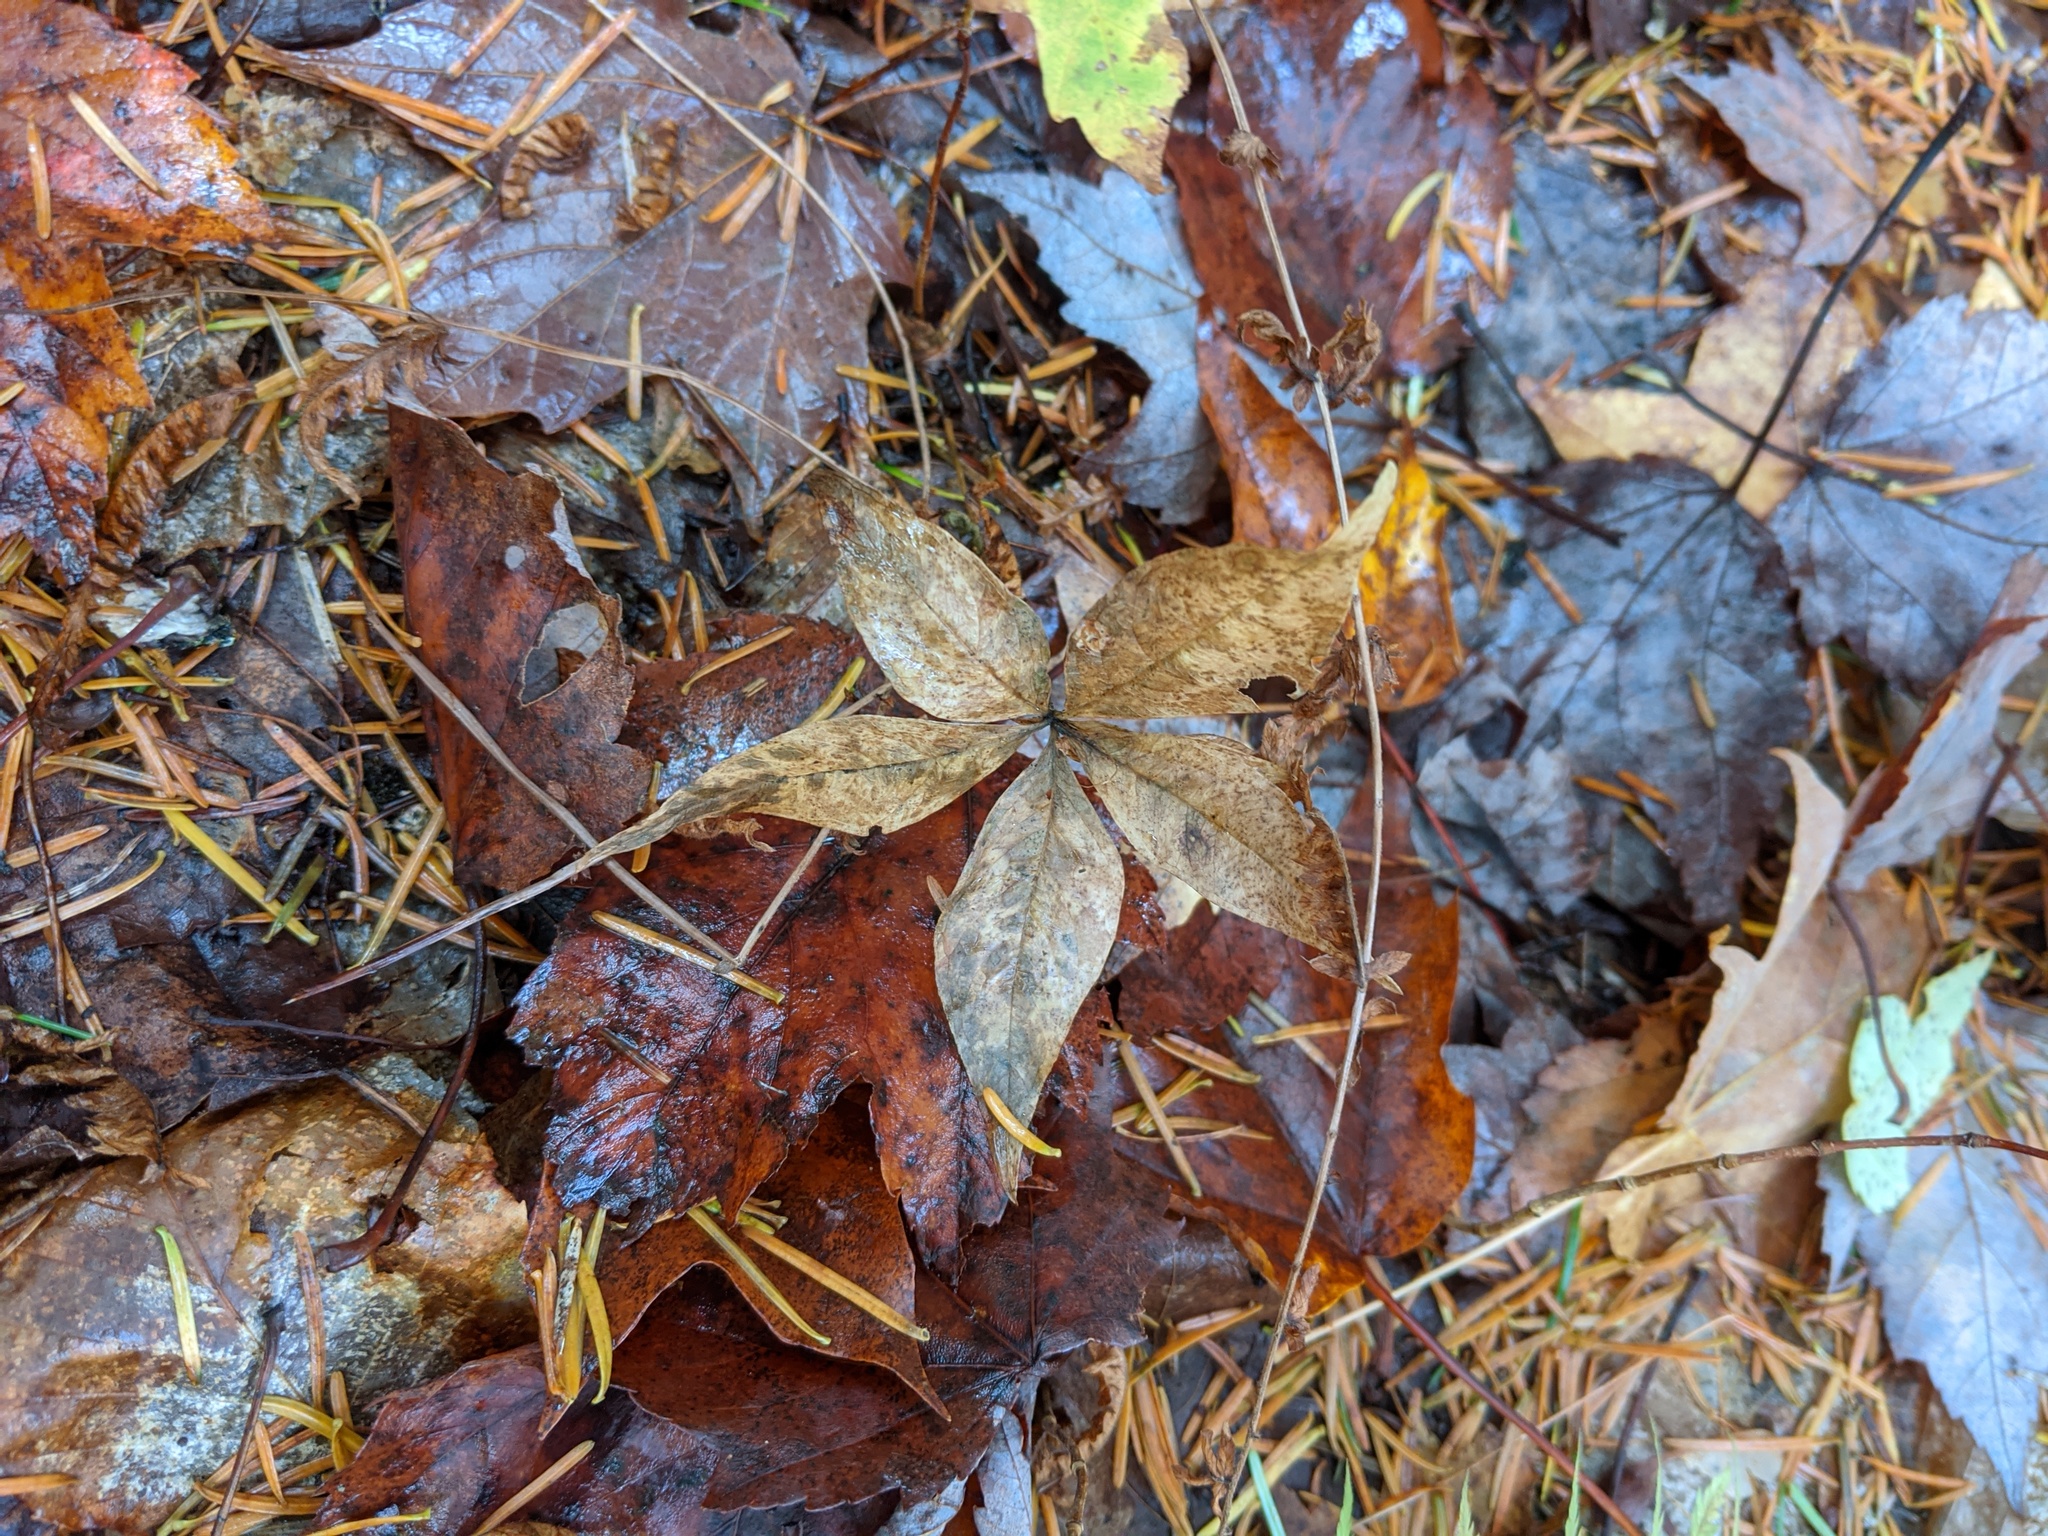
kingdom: Plantae
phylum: Tracheophyta
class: Magnoliopsida
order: Ericales
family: Primulaceae
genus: Lysimachia
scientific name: Lysimachia borealis
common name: American starflower
